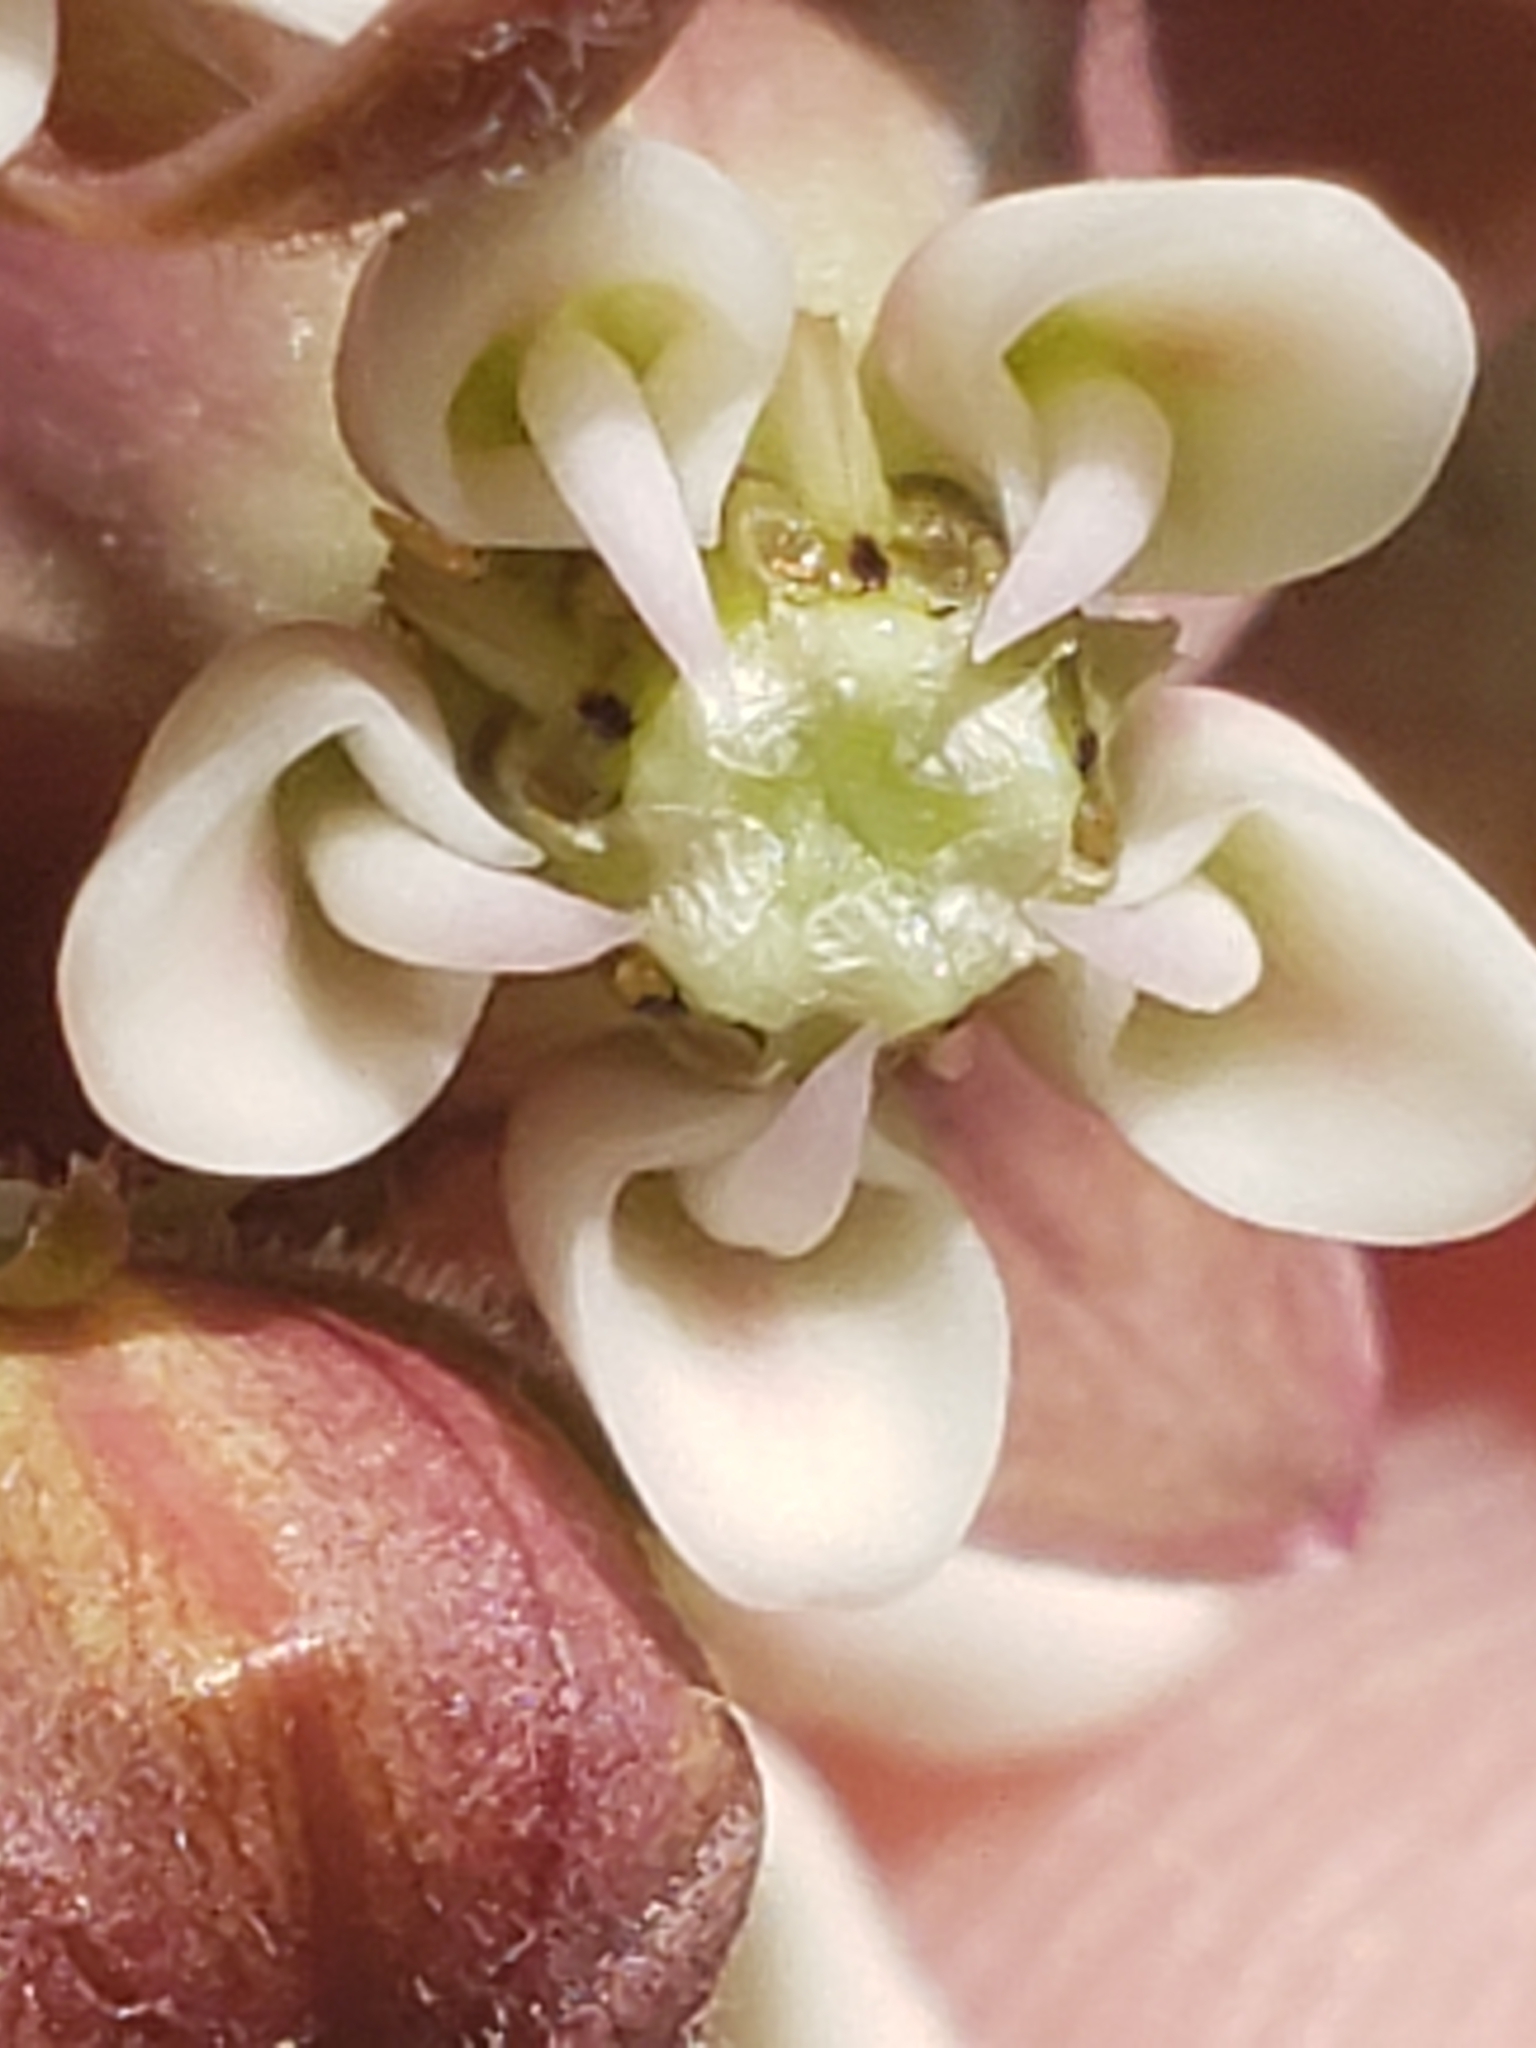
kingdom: Plantae
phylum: Tracheophyta
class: Magnoliopsida
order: Gentianales
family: Apocynaceae
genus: Asclepias
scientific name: Asclepias syriaca
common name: Common milkweed
